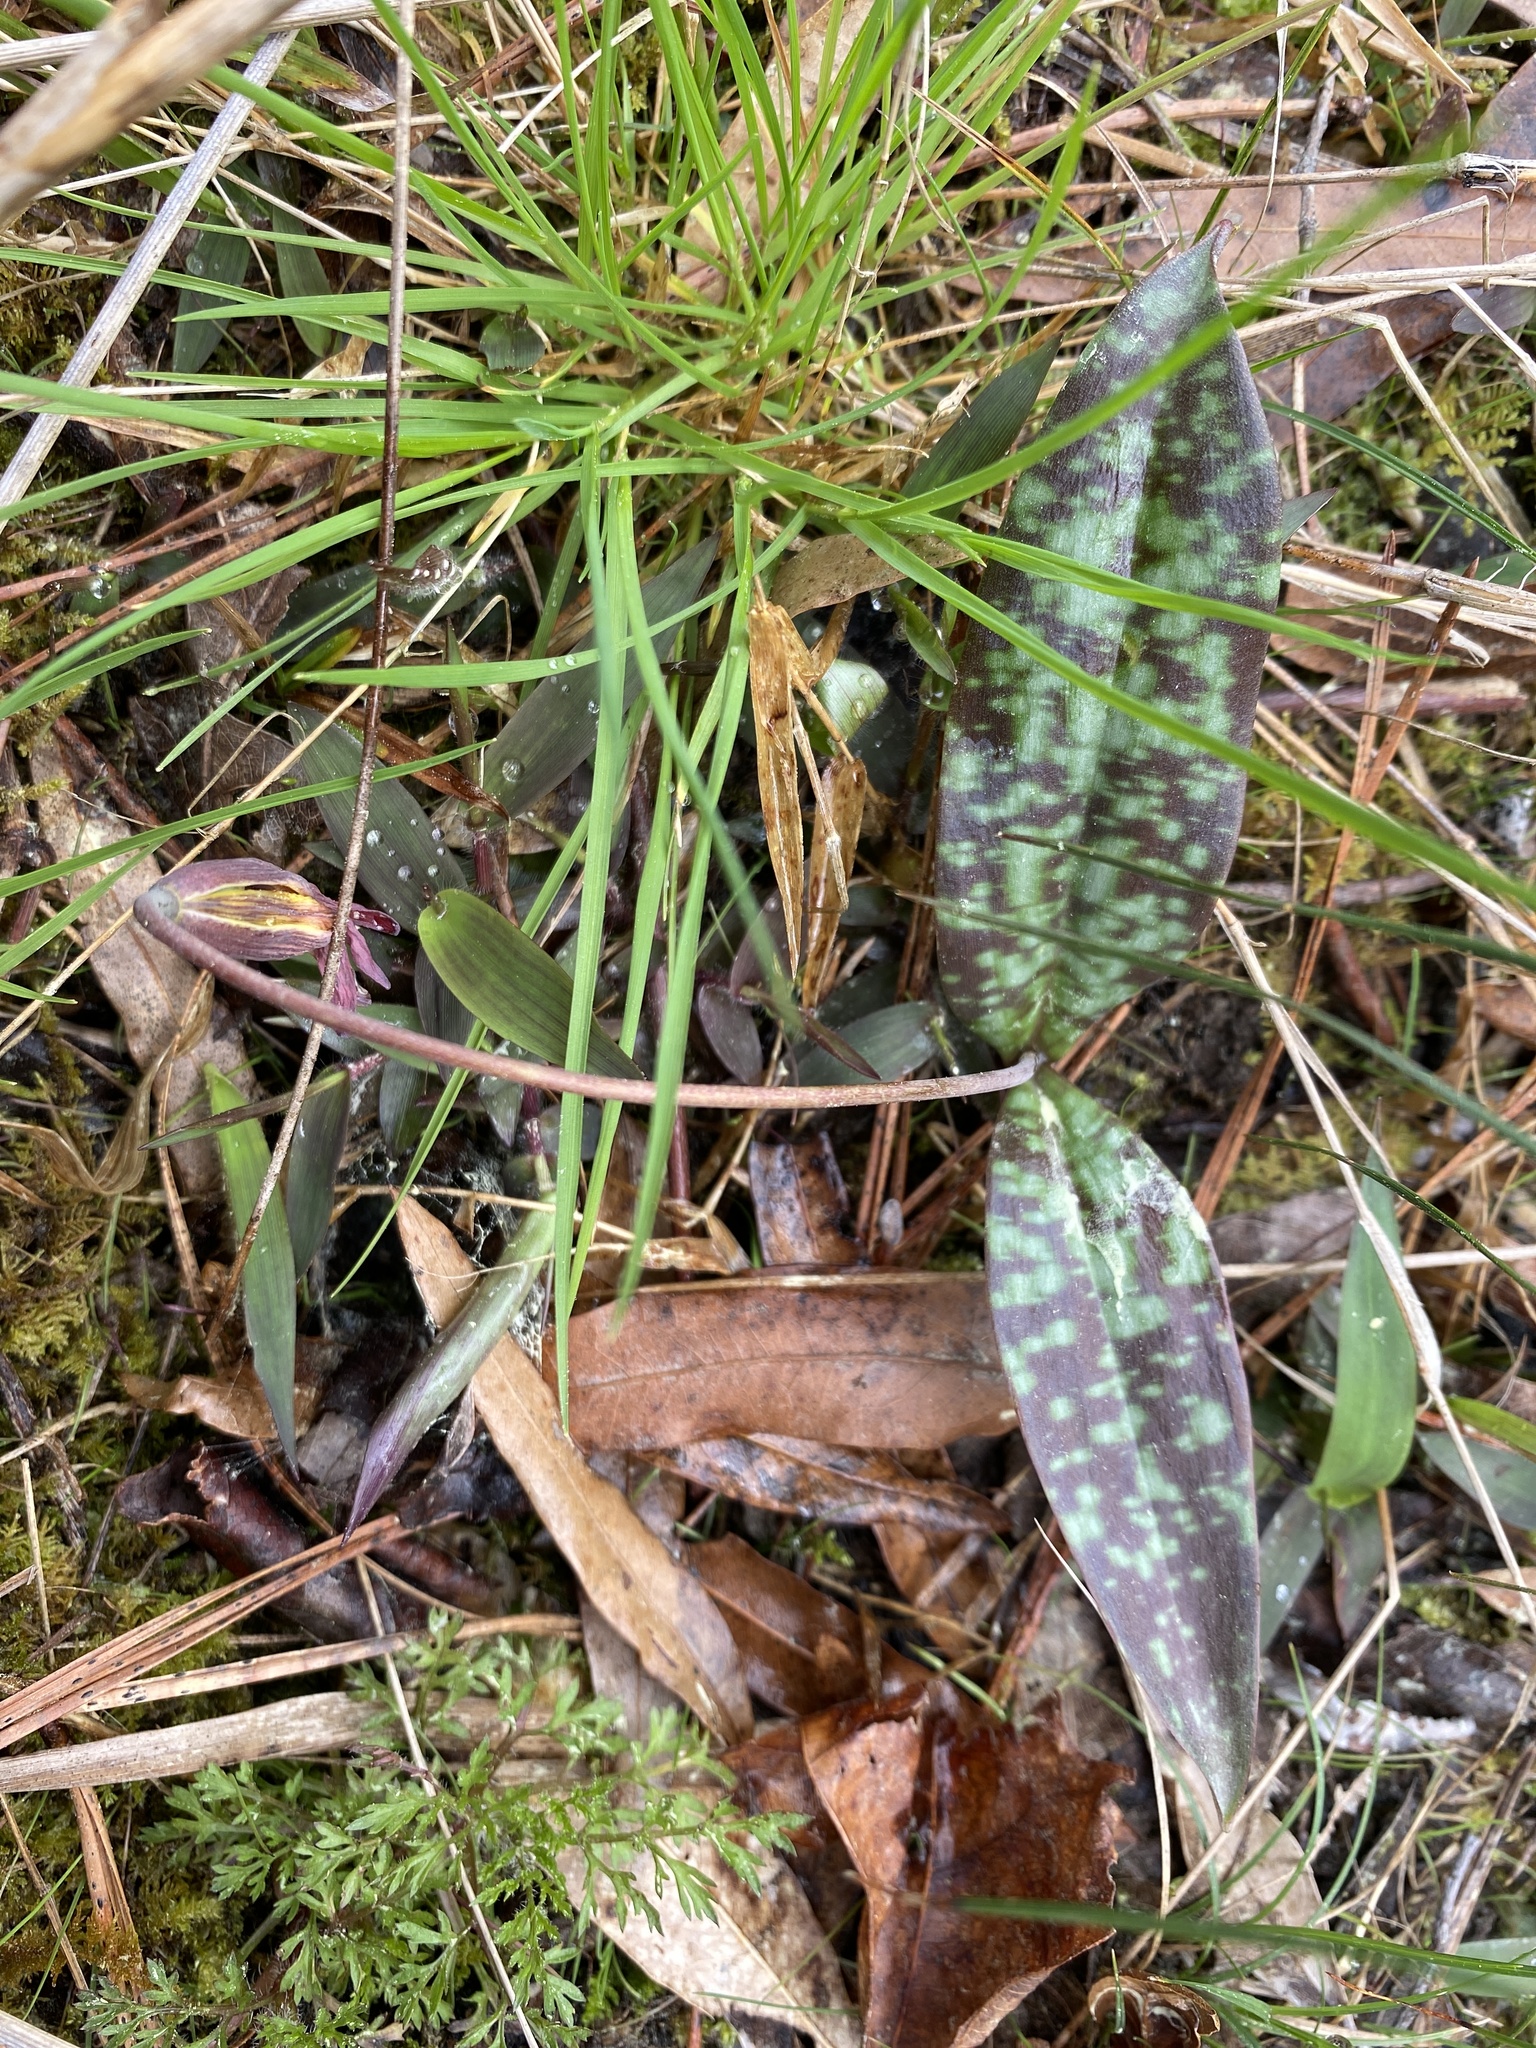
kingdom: Plantae
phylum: Tracheophyta
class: Liliopsida
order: Liliales
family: Liliaceae
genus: Erythronium
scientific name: Erythronium umbilicatum
